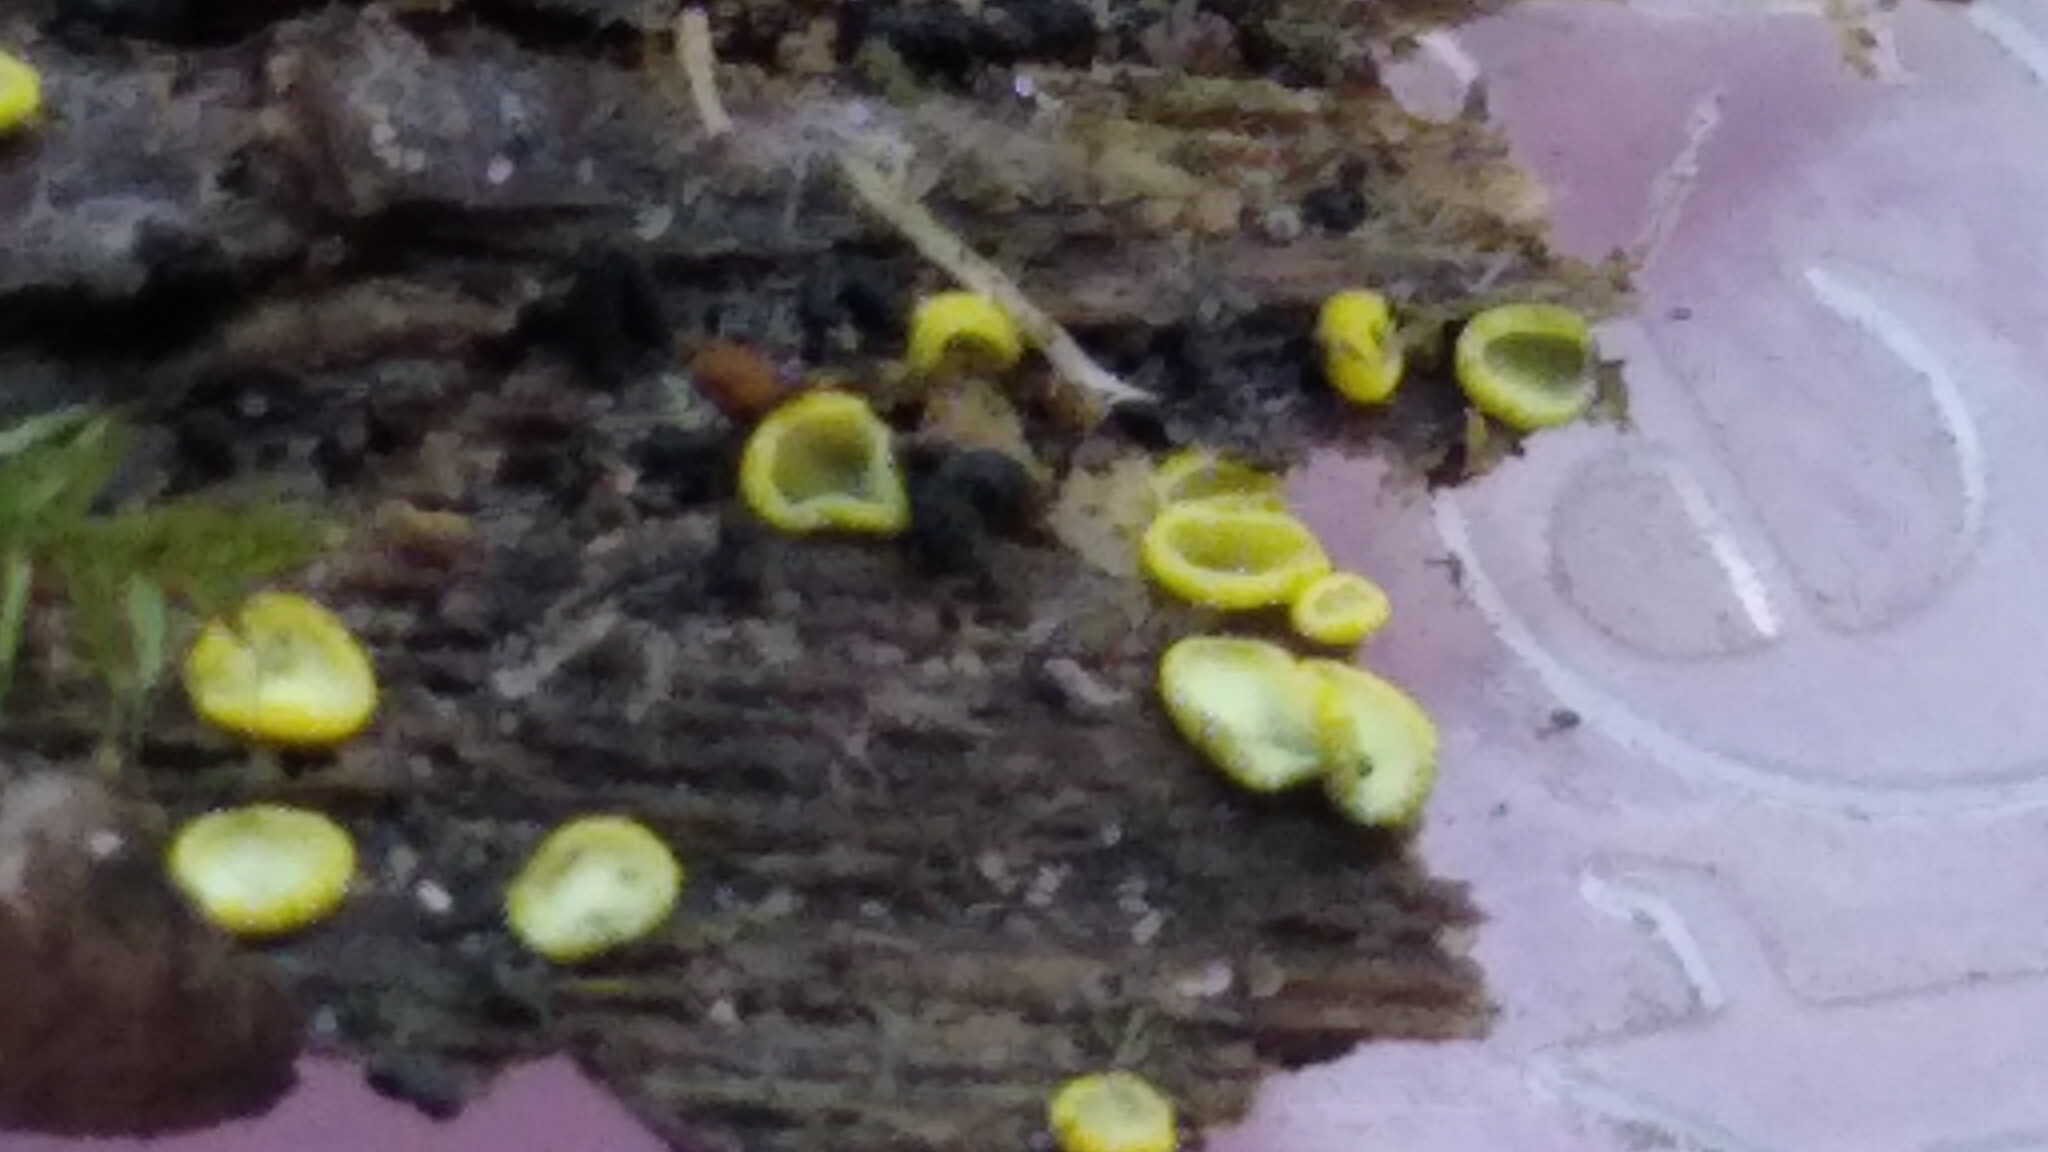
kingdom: Fungi
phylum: Ascomycota
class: Leotiomycetes
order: Helotiales
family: Chlorospleniaceae
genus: Chlorosplenium
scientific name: Chlorosplenium chlora
